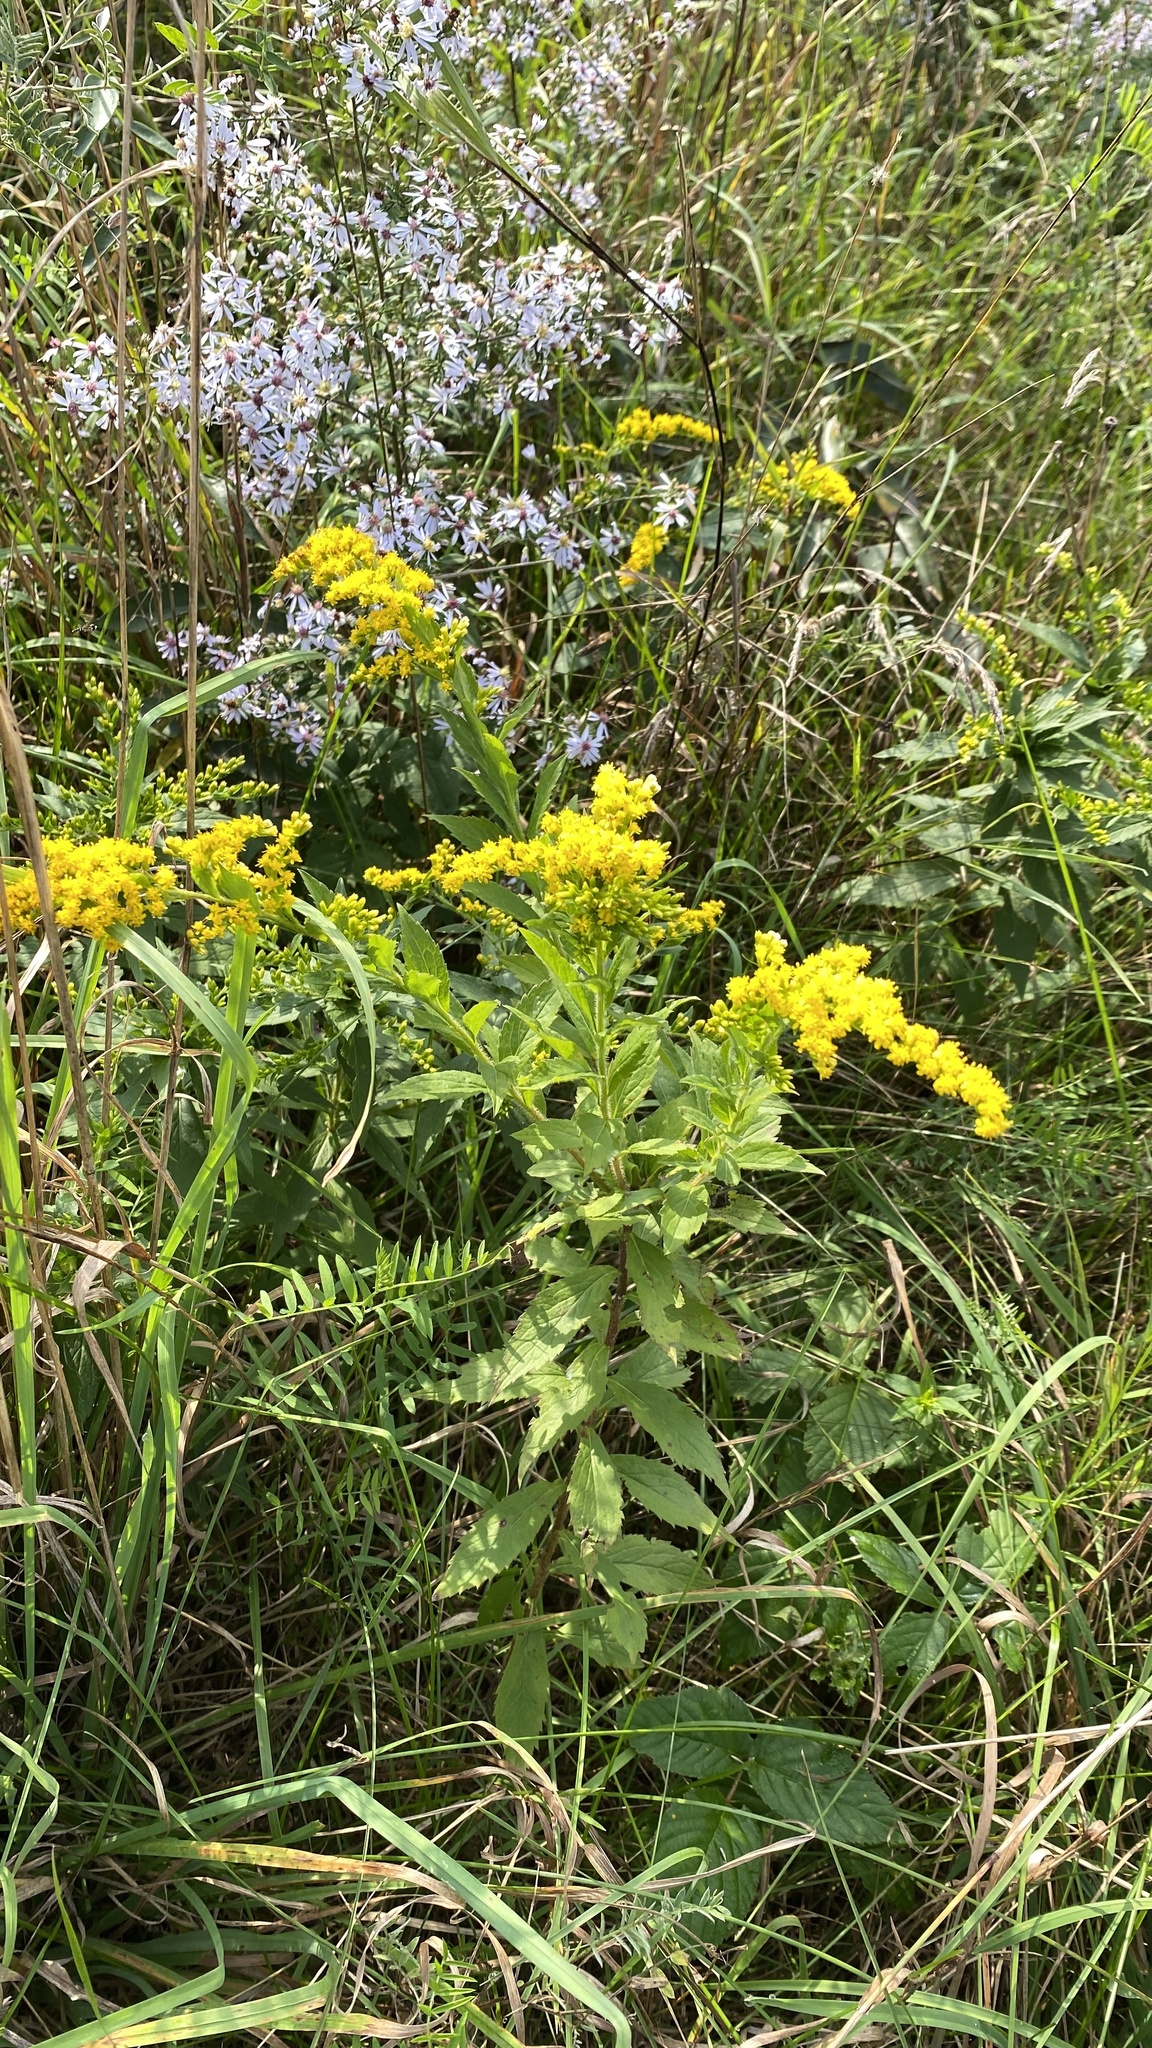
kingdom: Plantae
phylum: Tracheophyta
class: Magnoliopsida
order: Asterales
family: Asteraceae
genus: Solidago
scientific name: Solidago rugosa
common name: Rough-stemmed goldenrod
